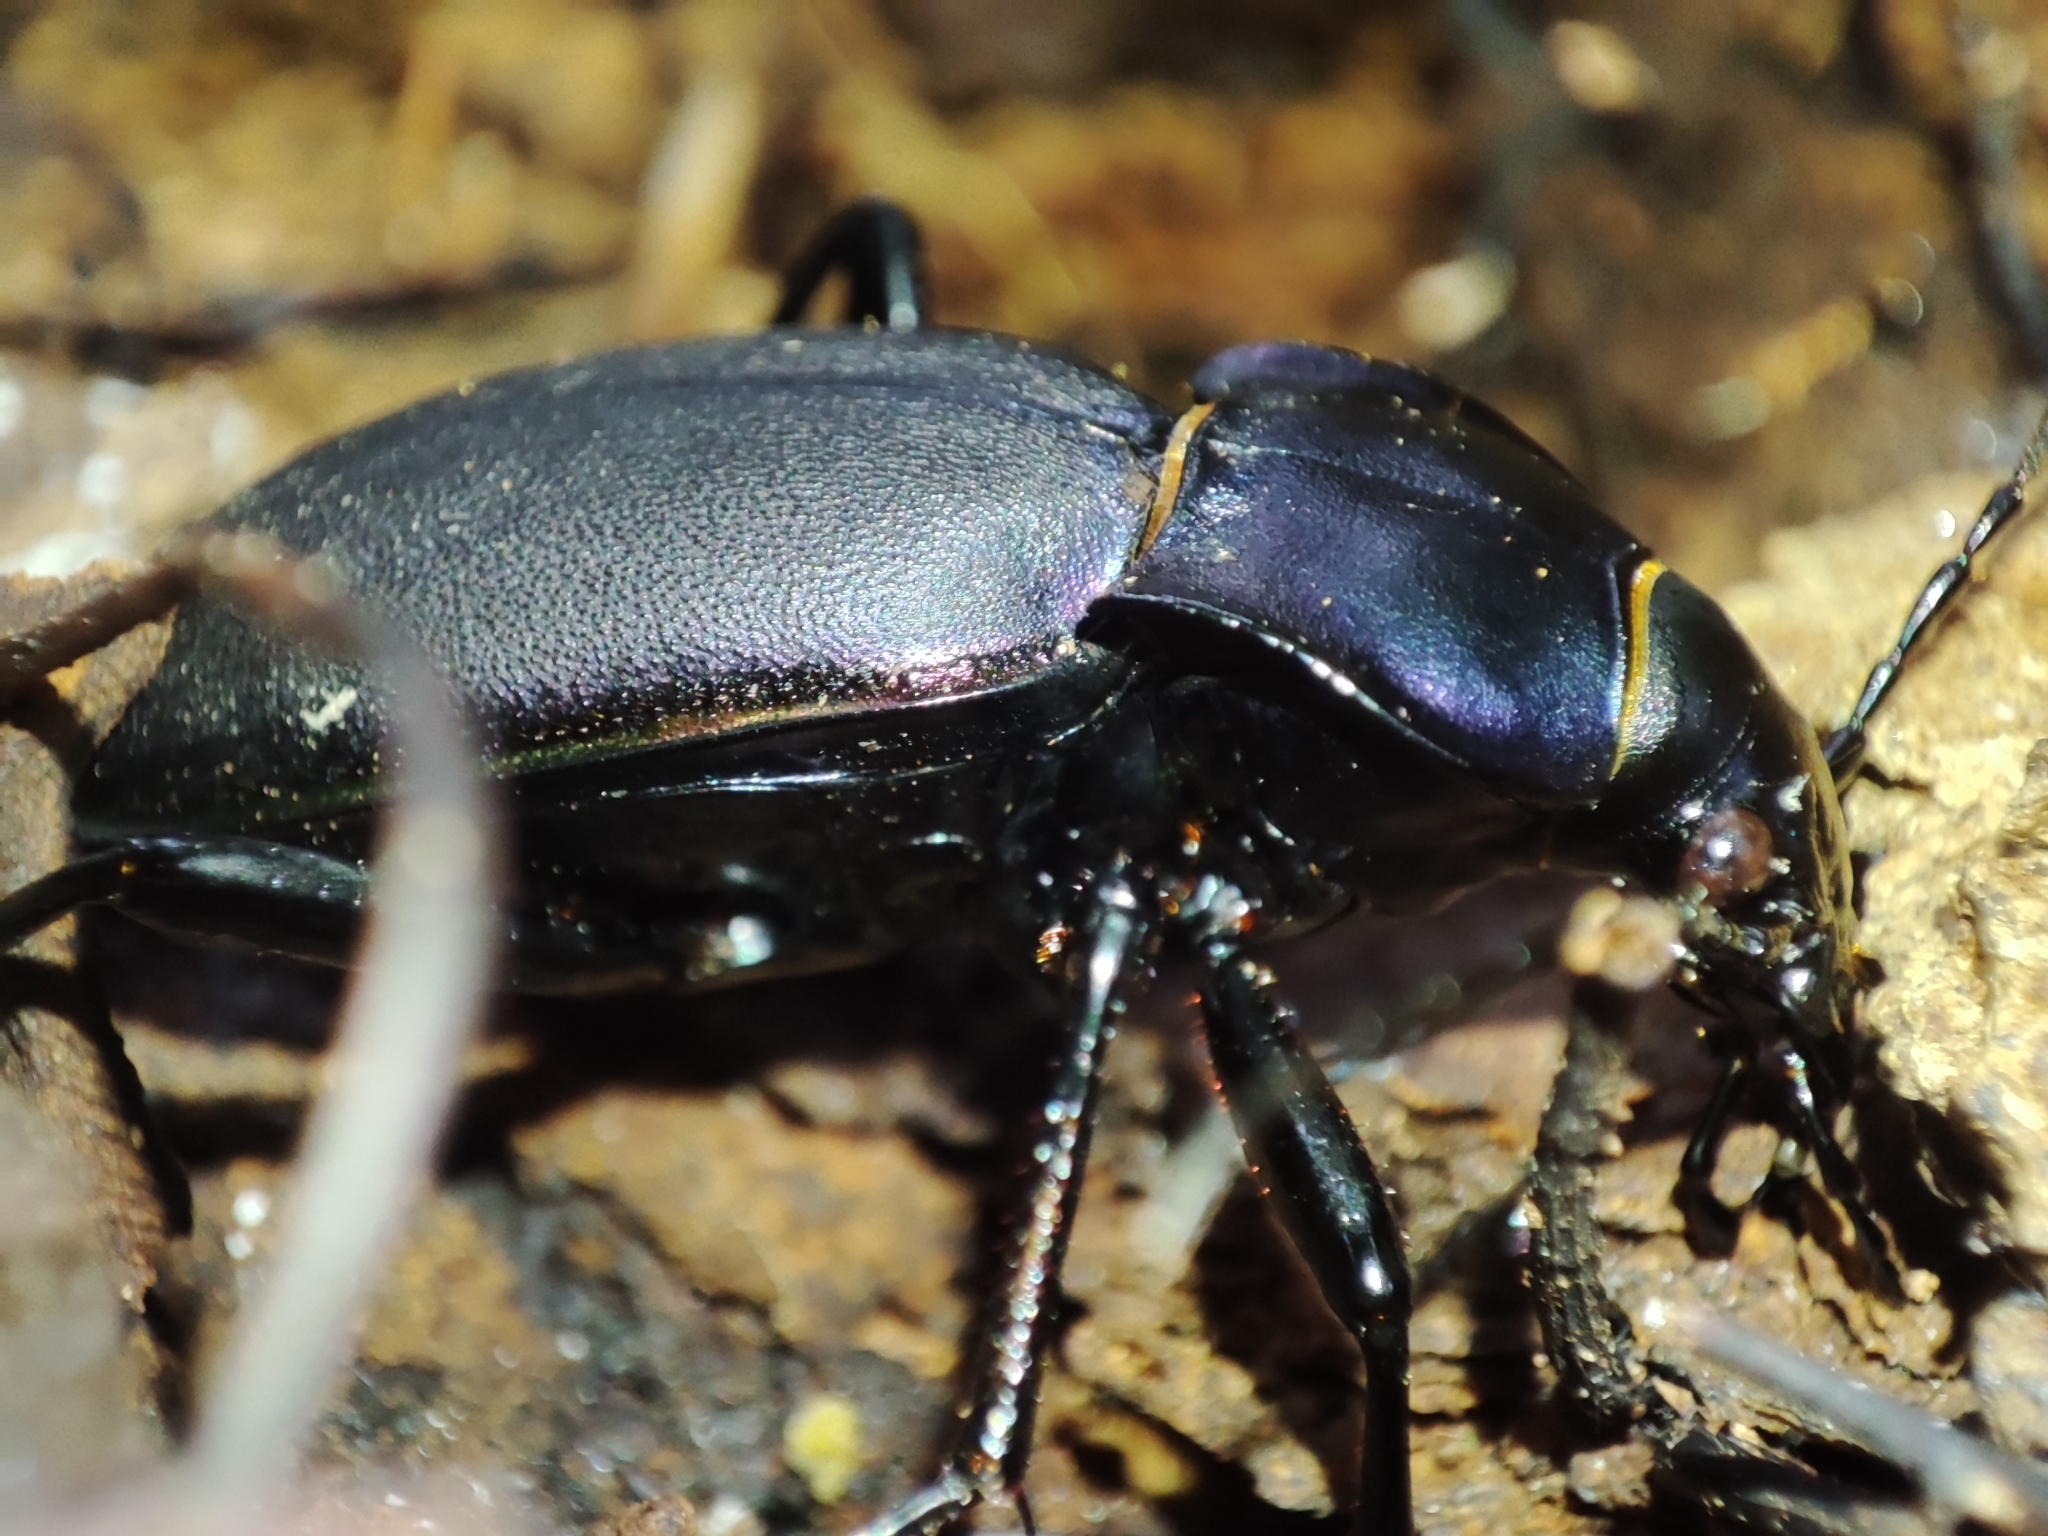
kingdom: Animalia
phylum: Arthropoda
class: Insecta
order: Coleoptera
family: Carabidae
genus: Carabus
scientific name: Carabus violaceus
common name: Violet ground beetle
